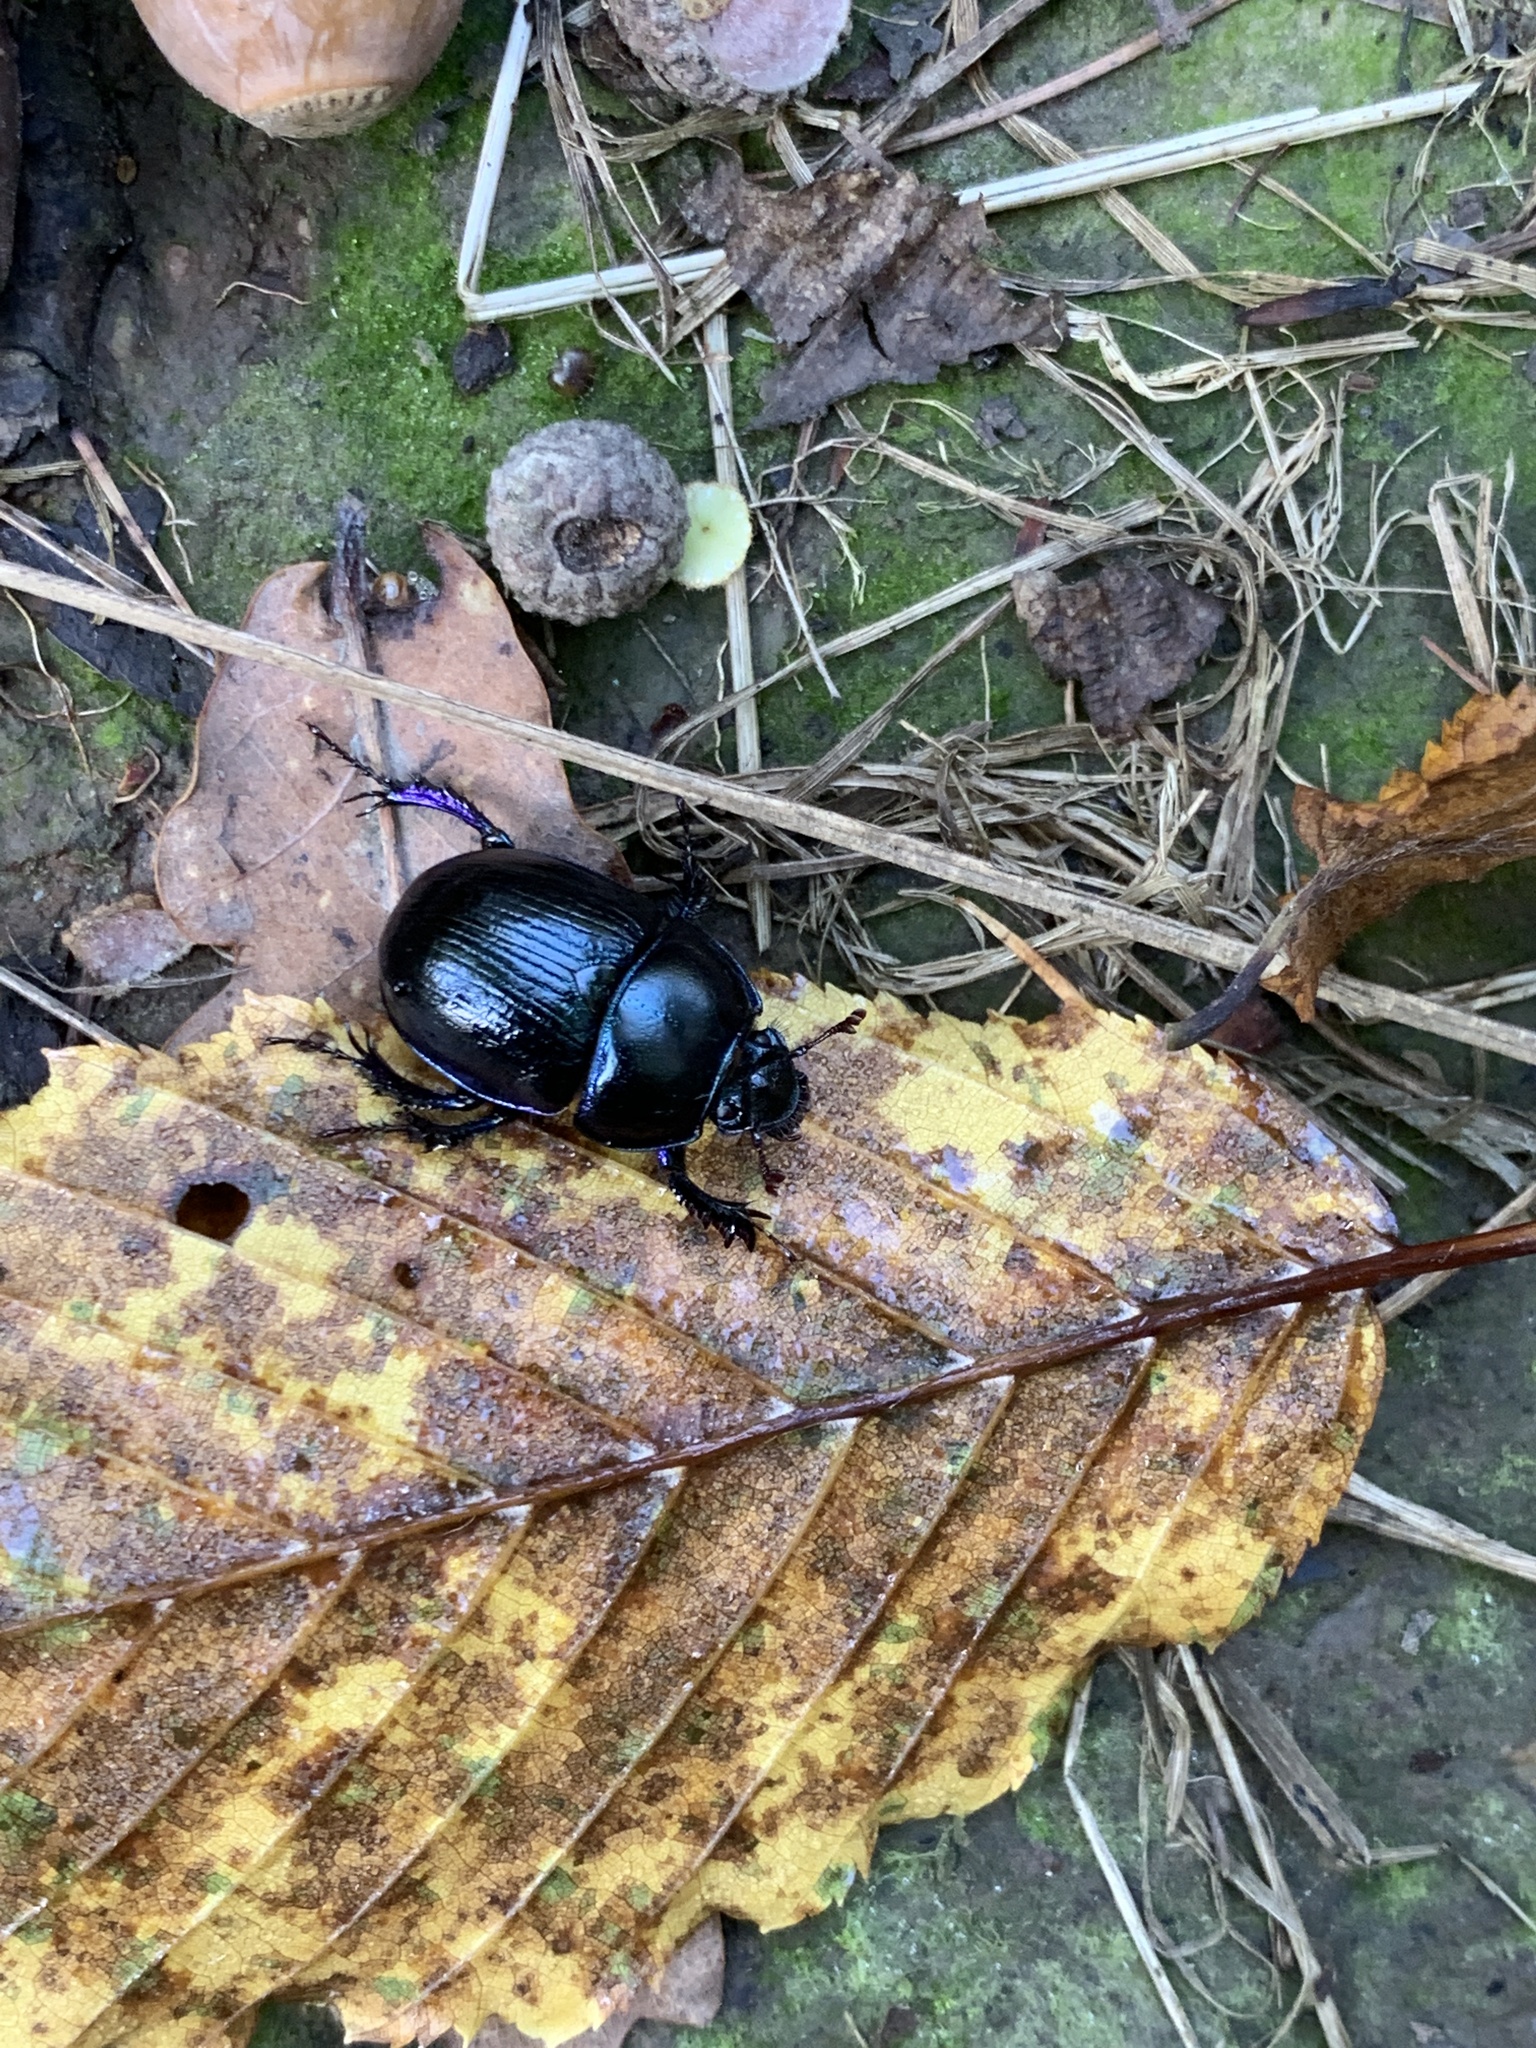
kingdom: Animalia
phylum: Arthropoda
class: Insecta
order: Coleoptera
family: Geotrupidae
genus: Anoplotrupes
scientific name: Anoplotrupes stercorosus
